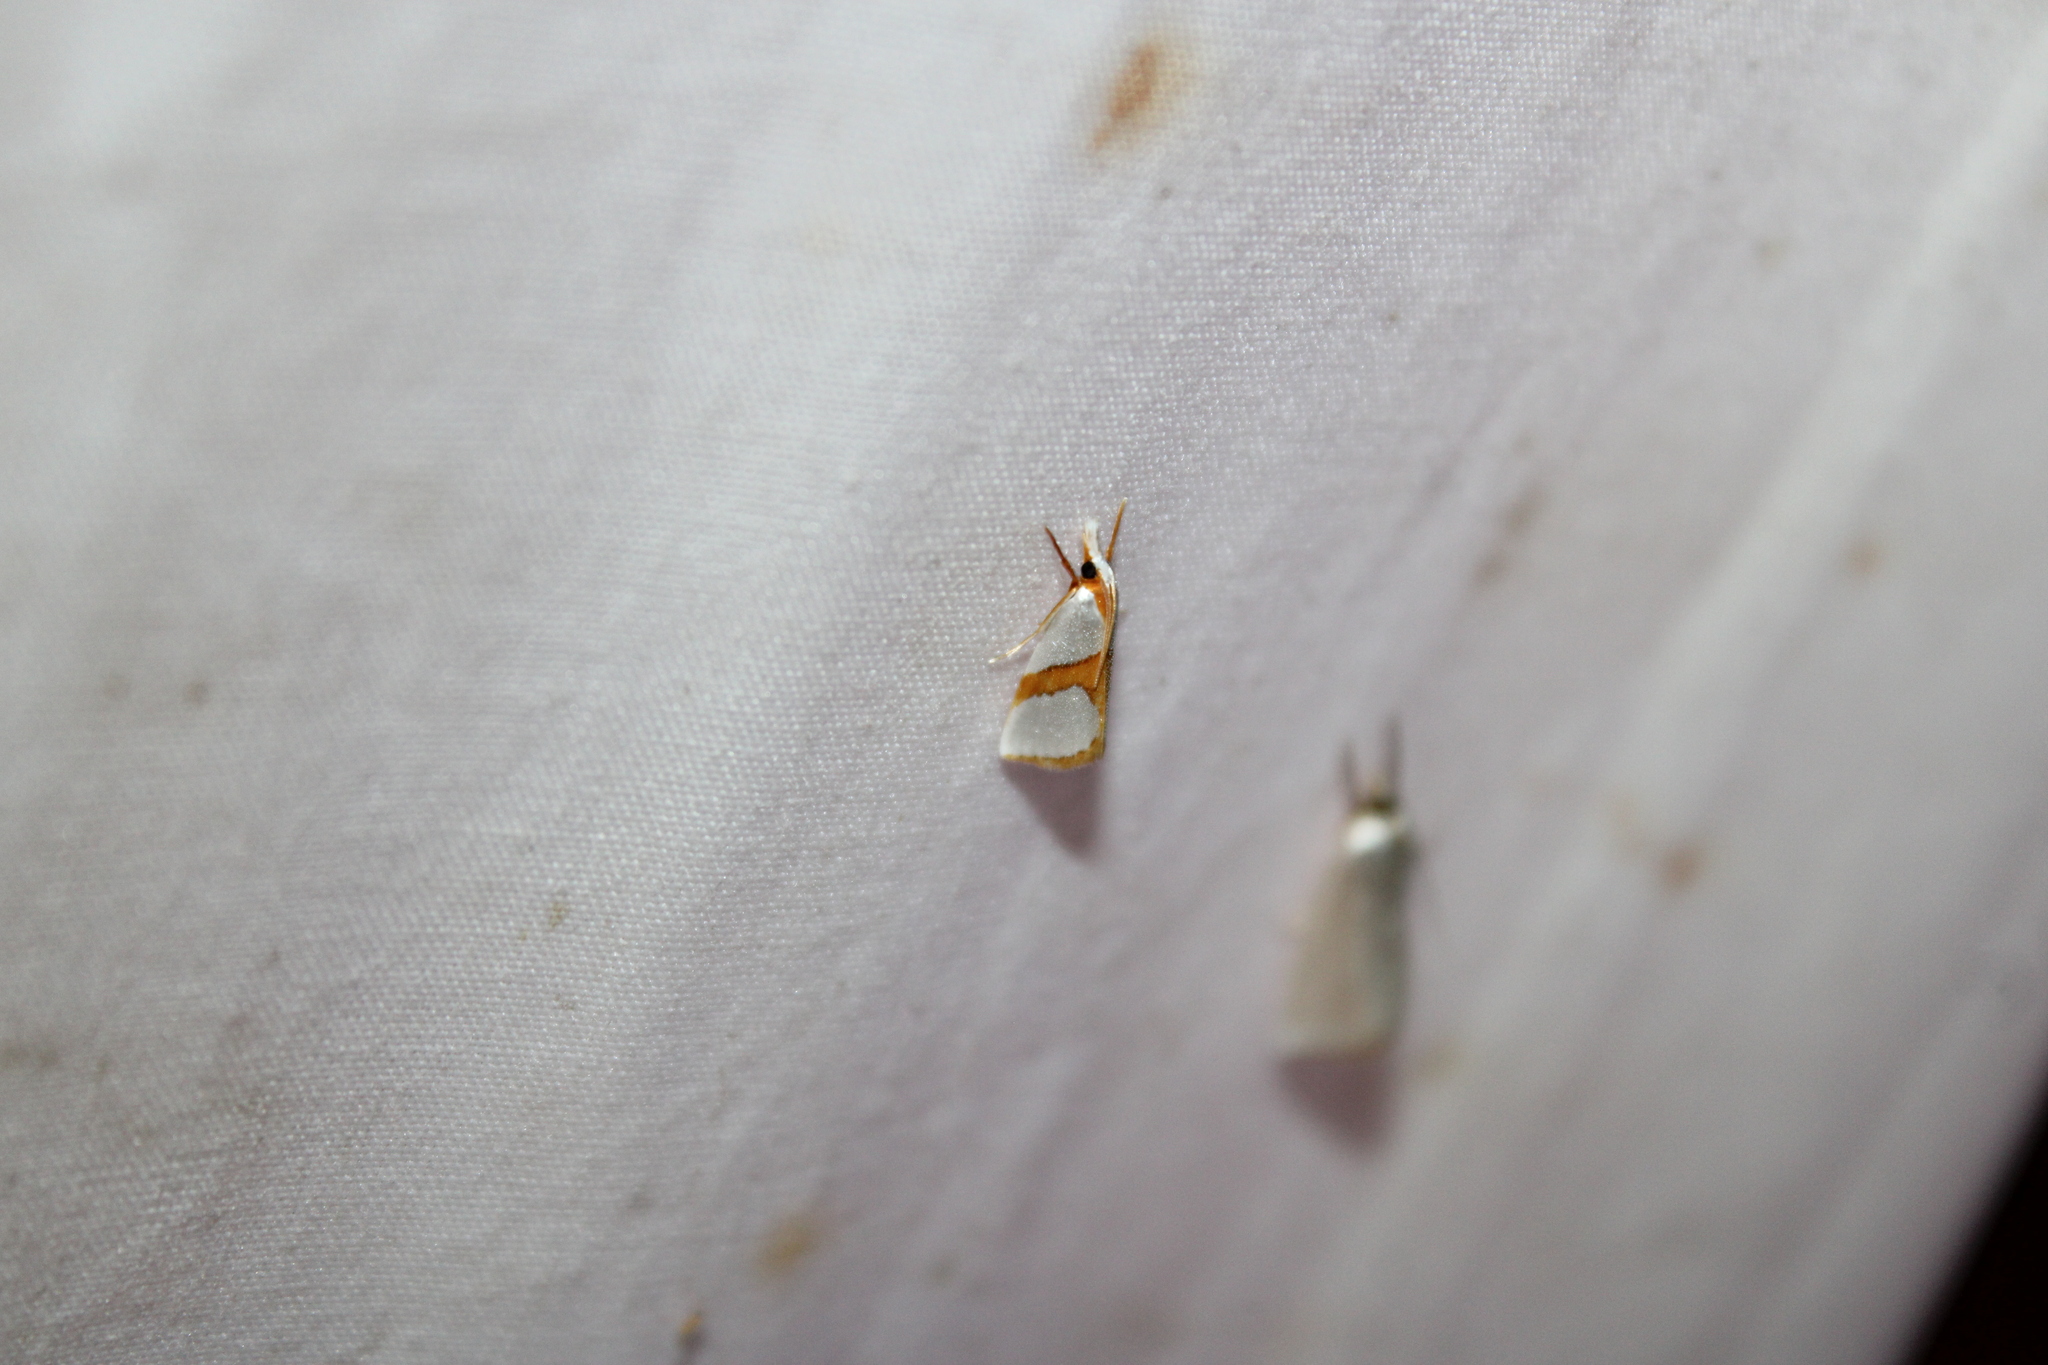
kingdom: Animalia
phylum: Arthropoda
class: Insecta
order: Lepidoptera
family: Crambidae
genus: Vaxi
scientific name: Vaxi critica
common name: Straight-lined vaxi moth
